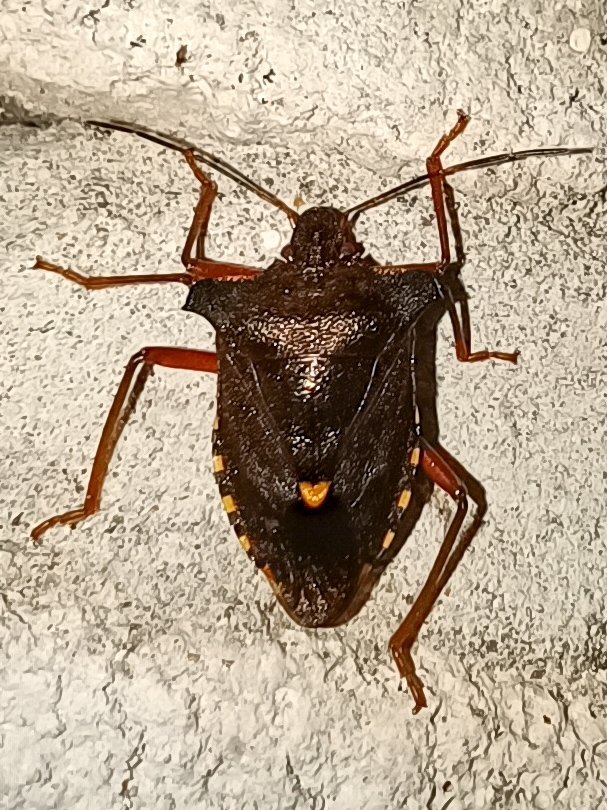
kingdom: Animalia
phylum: Arthropoda
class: Insecta
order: Hemiptera
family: Pentatomidae
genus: Pentatoma
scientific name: Pentatoma rufipes
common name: Forest bug
